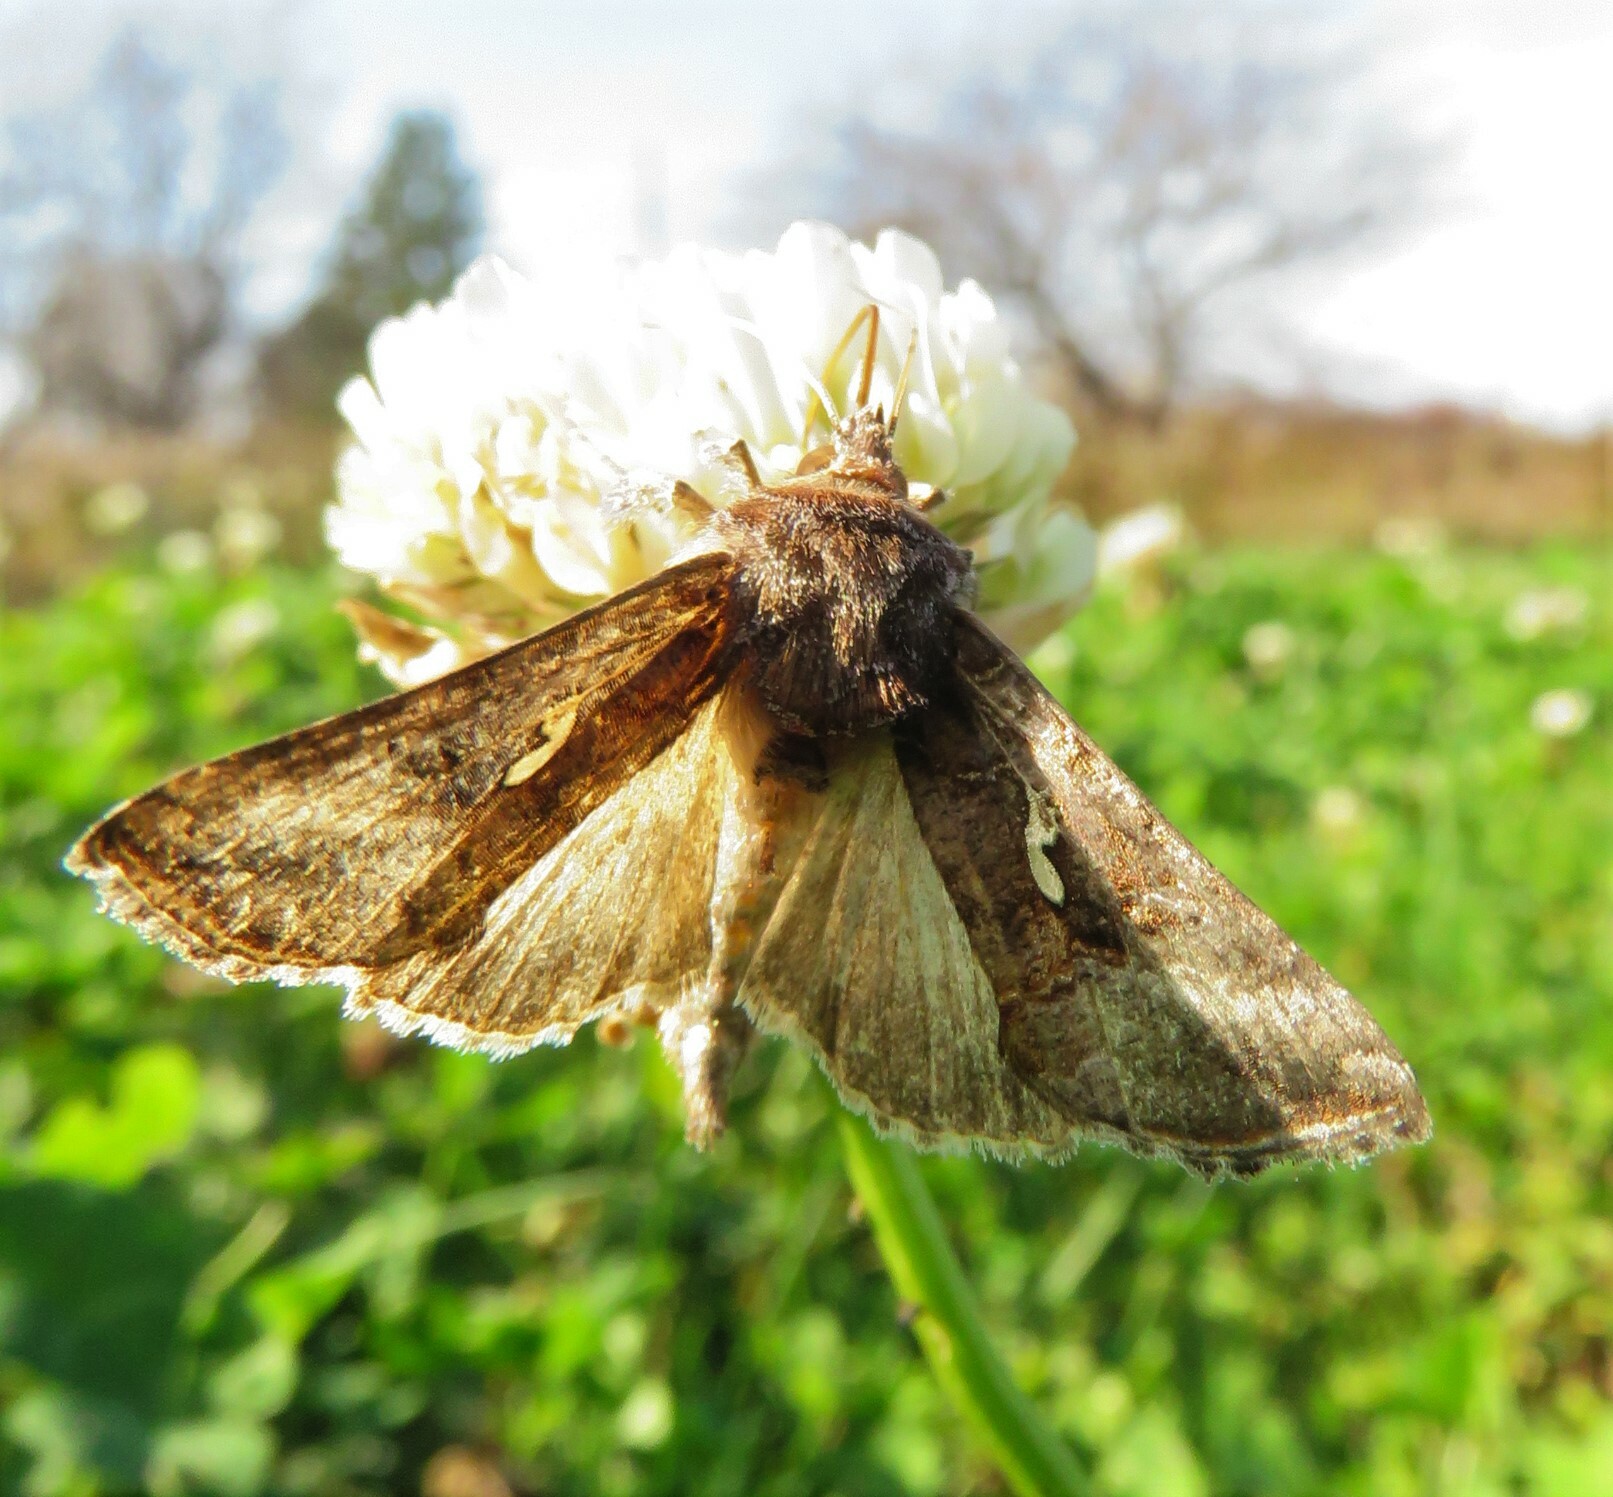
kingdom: Animalia
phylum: Arthropoda
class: Insecta
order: Lepidoptera
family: Noctuidae
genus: Autographa
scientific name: Autographa precationis
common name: Common looper moth
